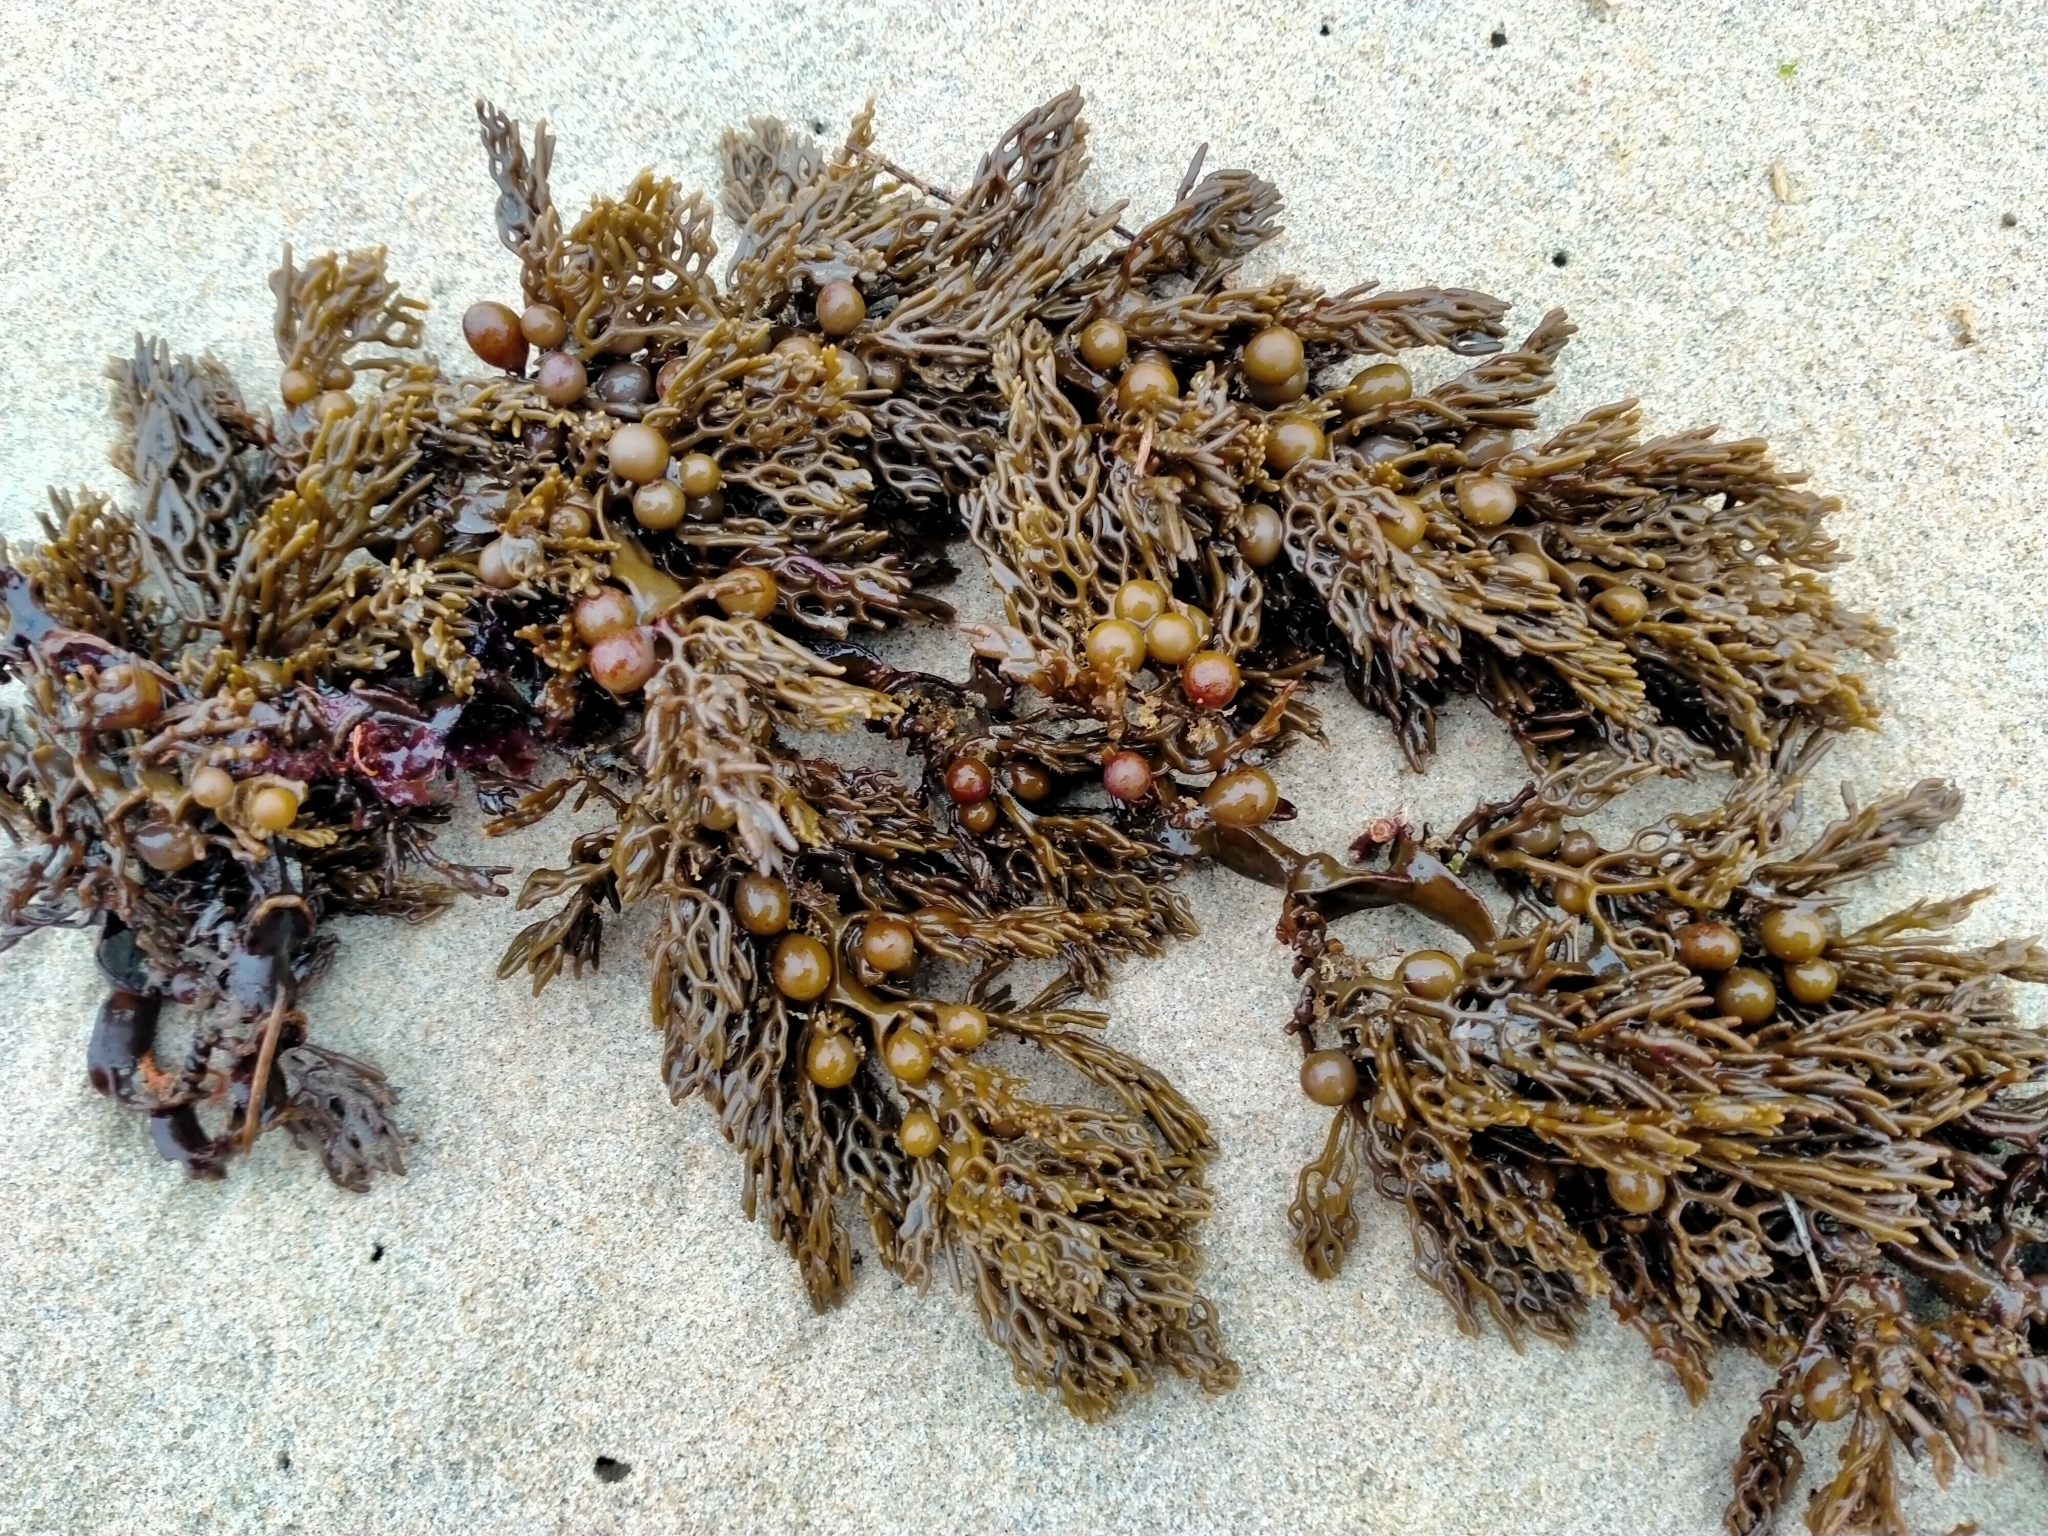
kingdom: Chromista
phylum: Ochrophyta
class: Phaeophyceae
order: Fucales
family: Sargassaceae
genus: Cystophora
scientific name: Cystophora scalaris
